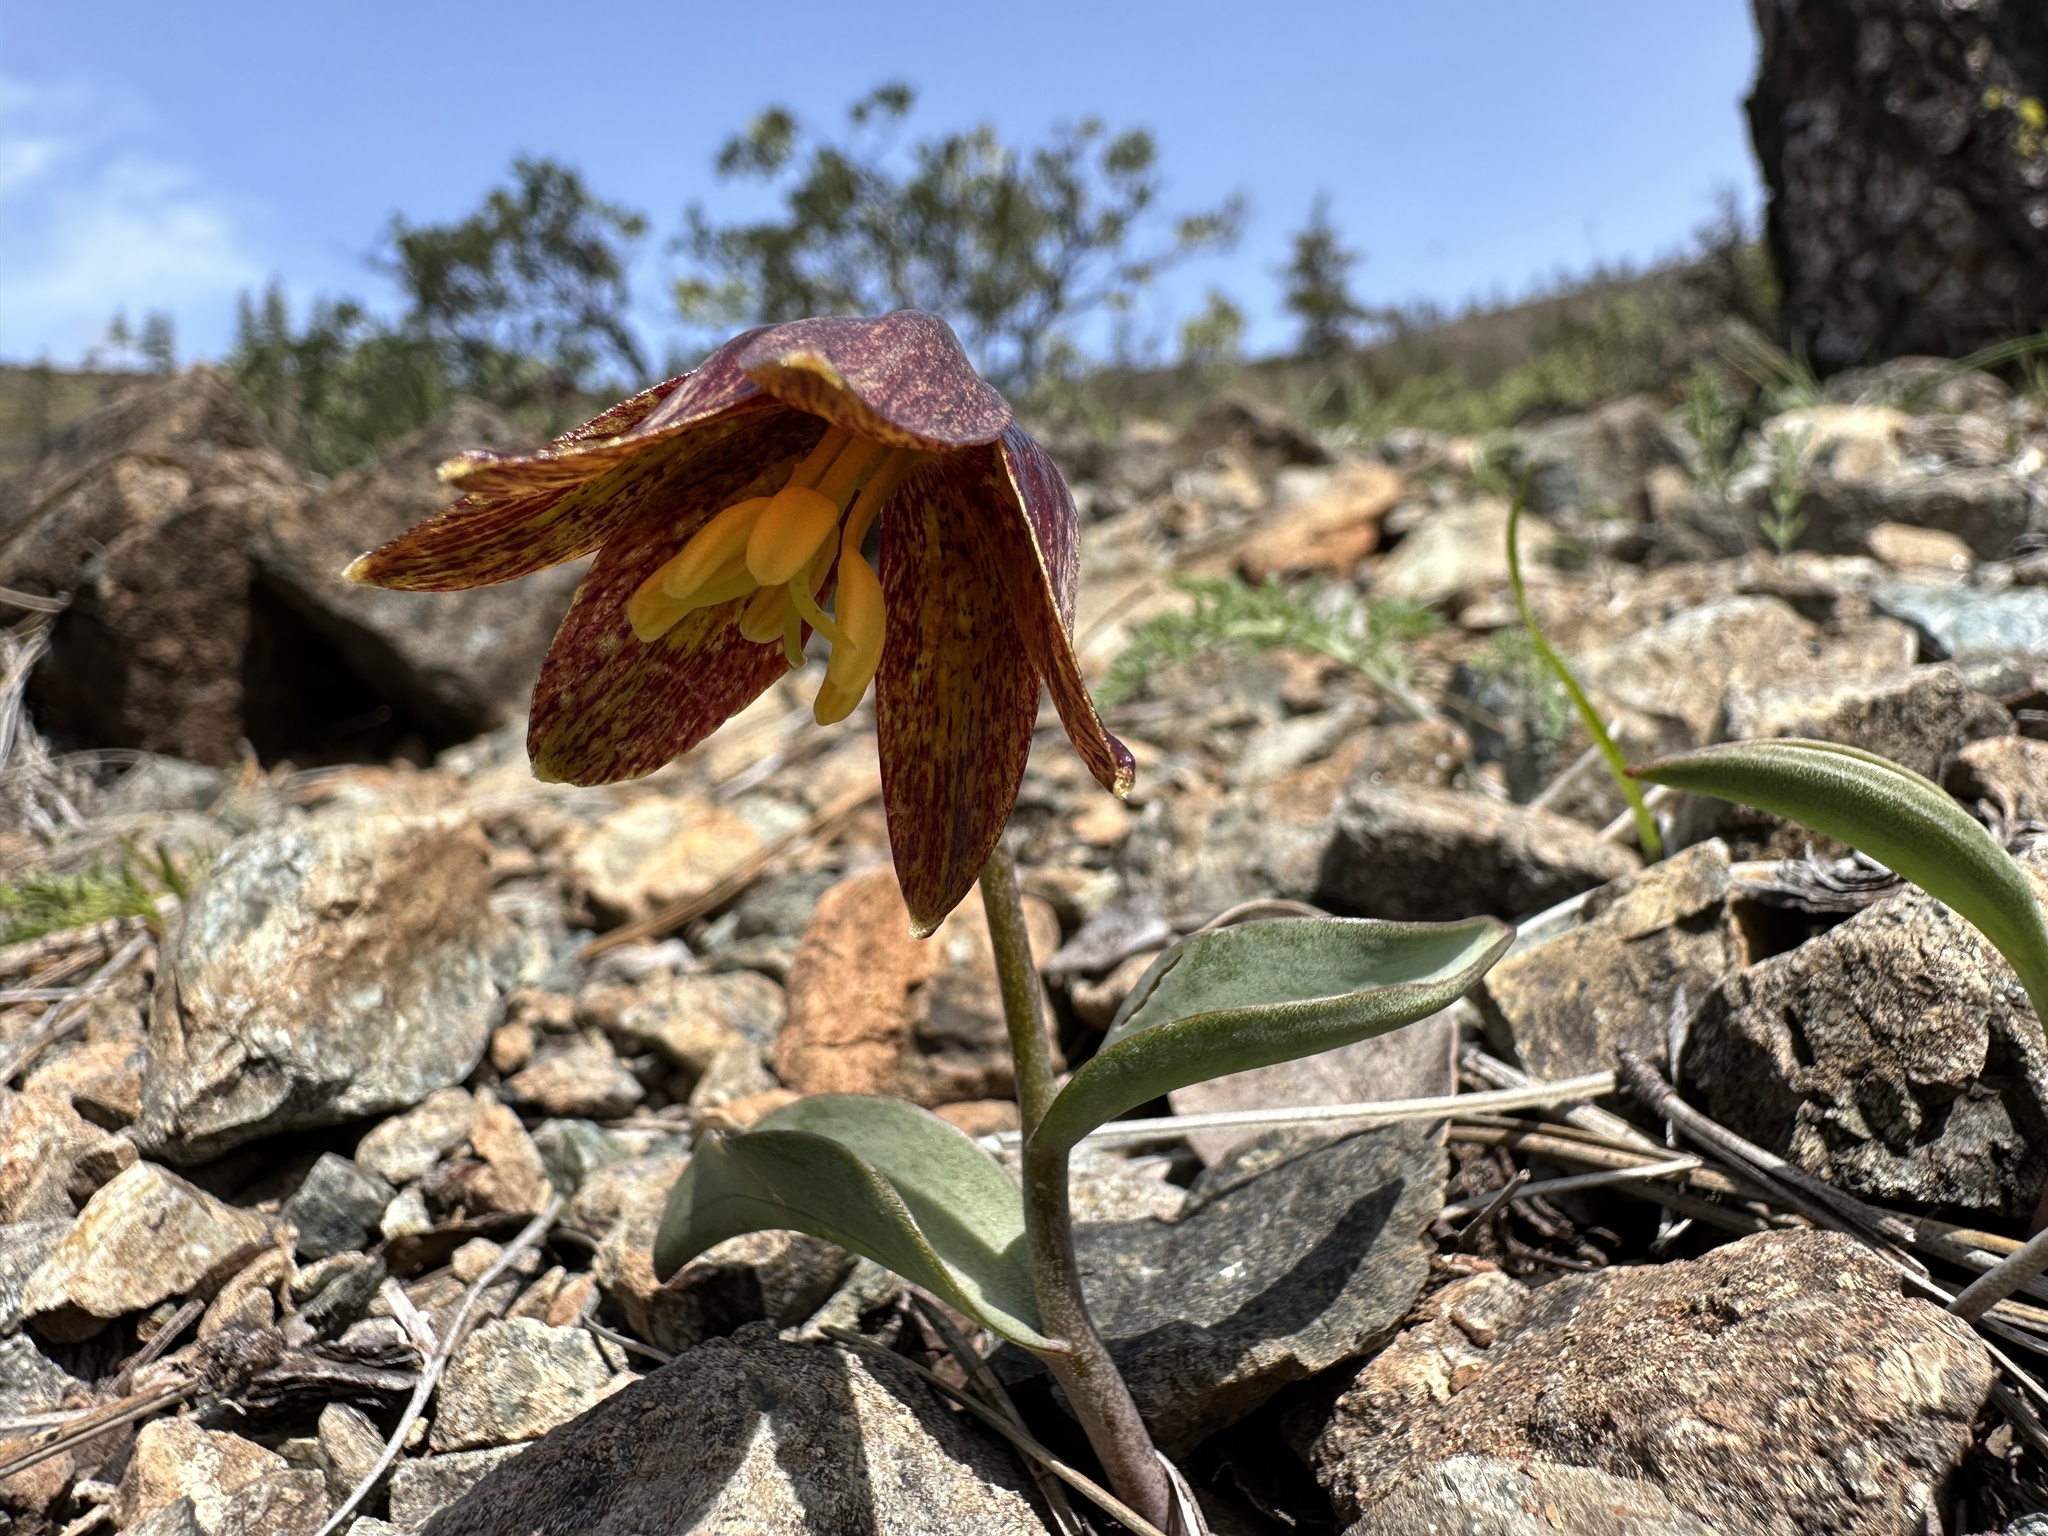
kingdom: Plantae
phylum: Tracheophyta
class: Liliopsida
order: Liliales
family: Liliaceae
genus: Fritillaria
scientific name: Fritillaria glauca
